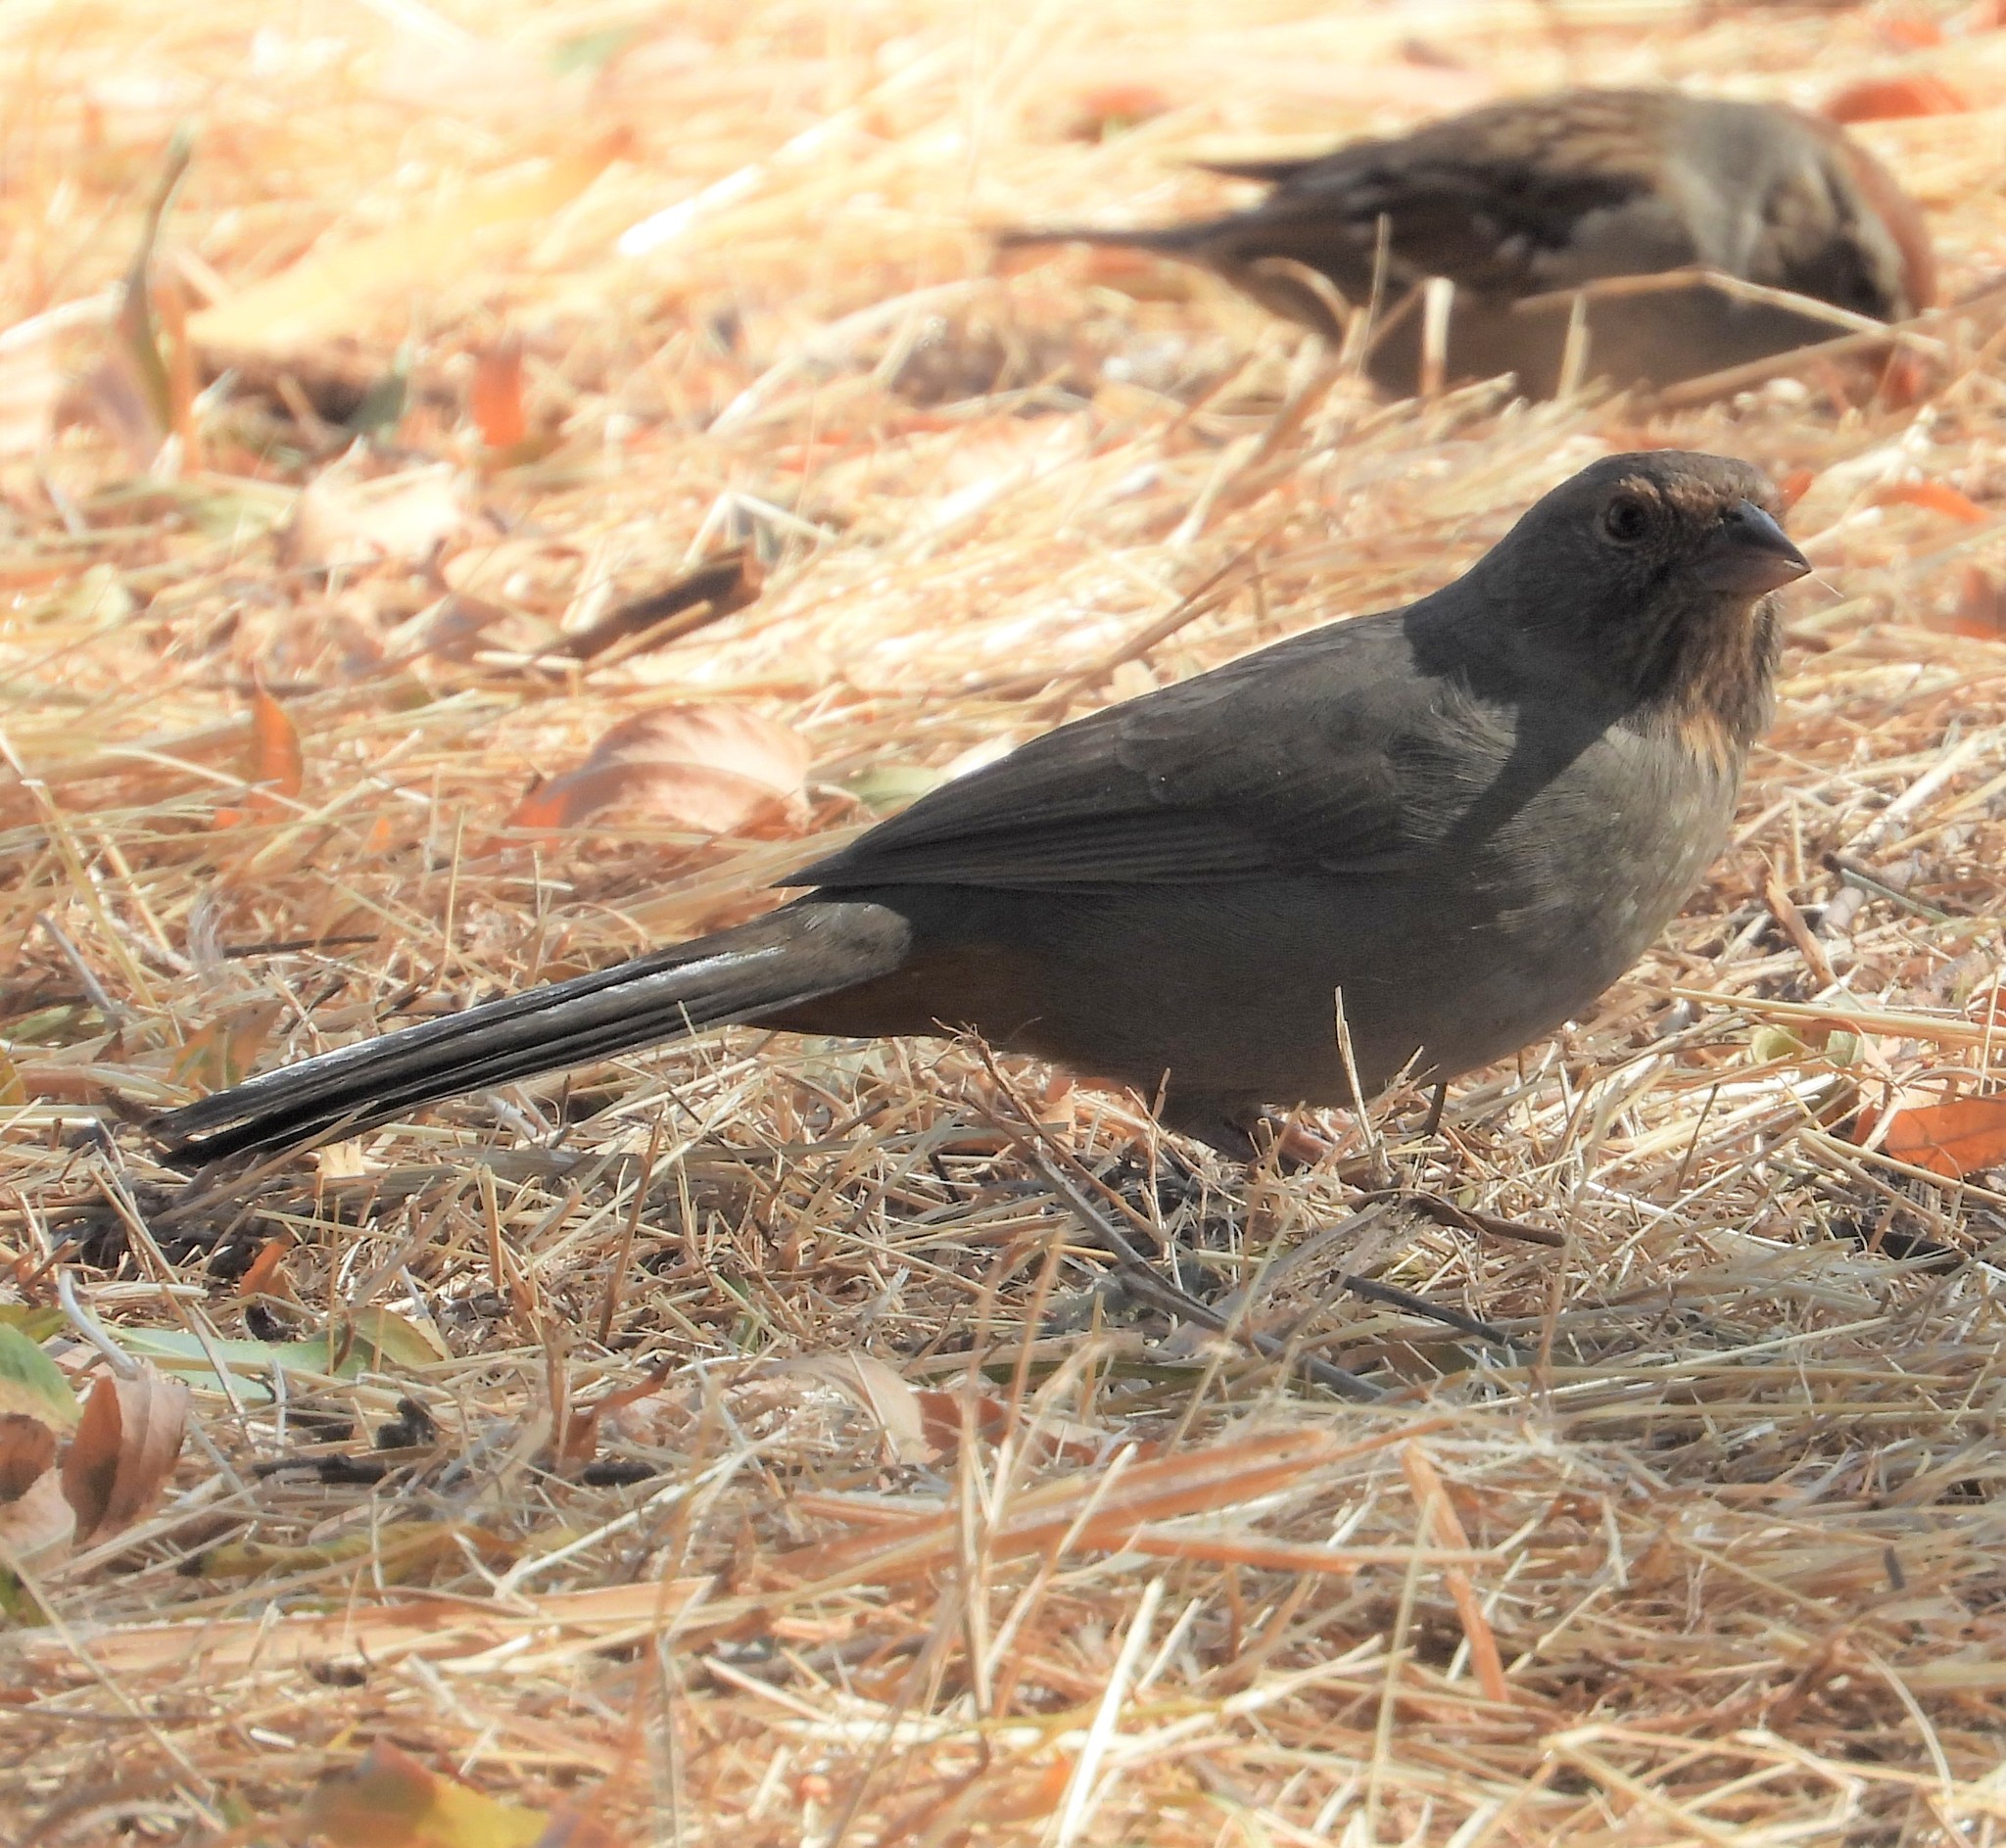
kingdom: Animalia
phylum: Chordata
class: Aves
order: Passeriformes
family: Passerellidae
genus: Melozone
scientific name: Melozone crissalis
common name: California towhee
